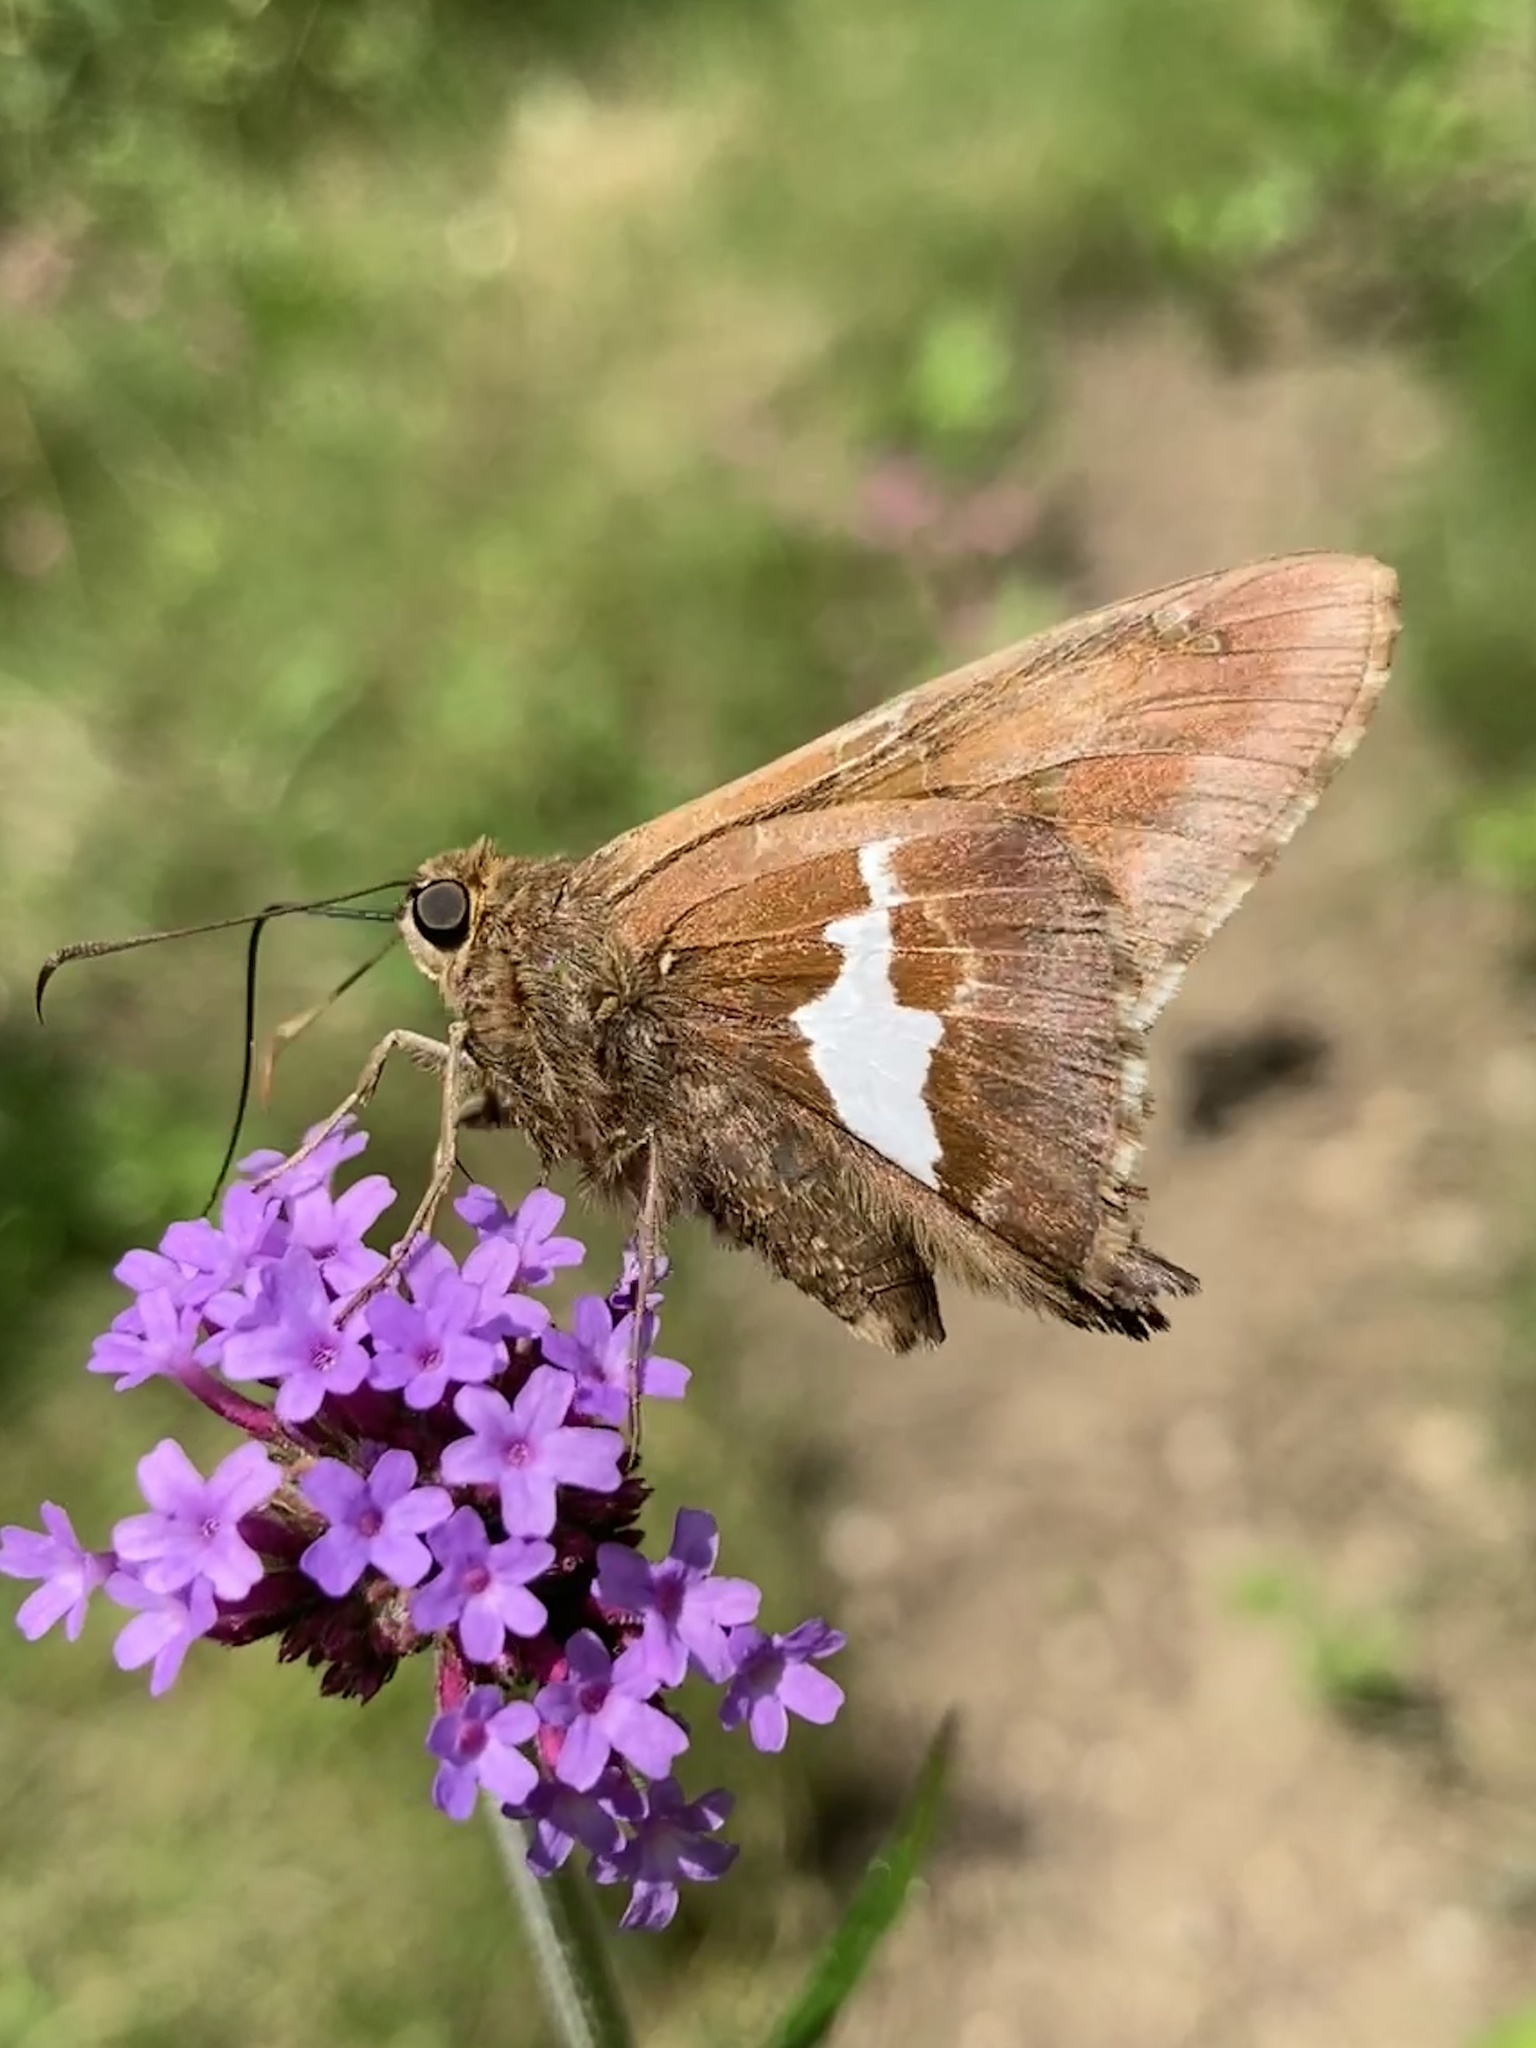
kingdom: Animalia
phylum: Arthropoda
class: Insecta
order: Lepidoptera
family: Hesperiidae
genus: Epargyreus
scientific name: Epargyreus clarus
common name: Silver-spotted skipper
